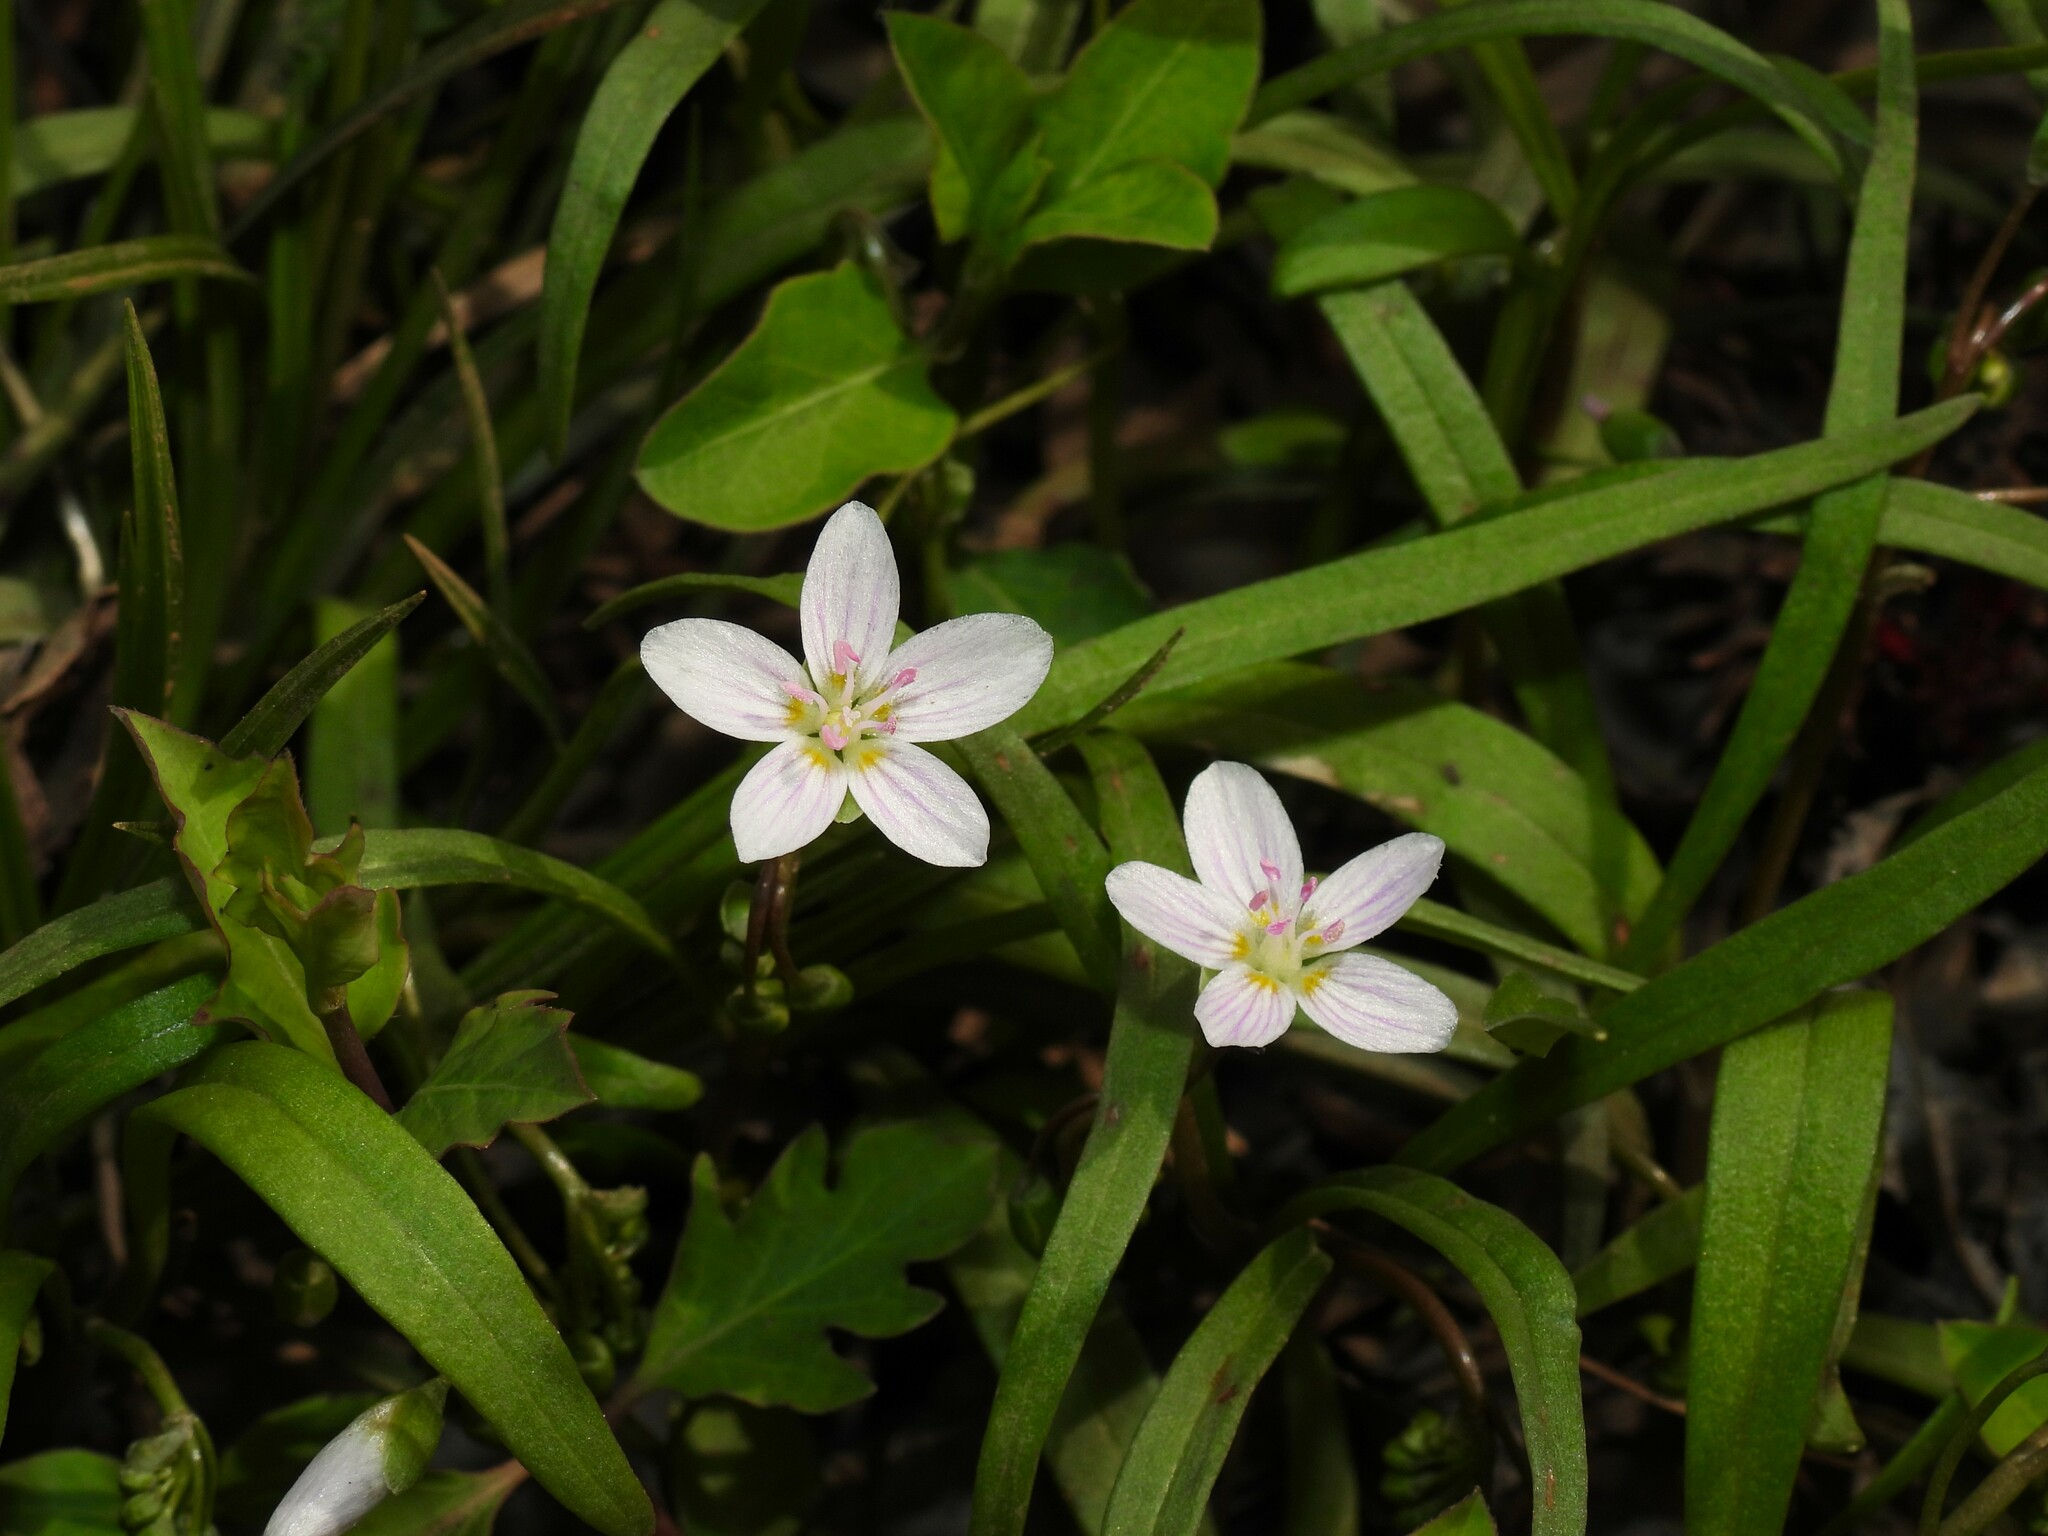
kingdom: Plantae
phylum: Tracheophyta
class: Magnoliopsida
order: Caryophyllales
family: Montiaceae
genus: Claytonia
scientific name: Claytonia virginica
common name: Virginia springbeauty
